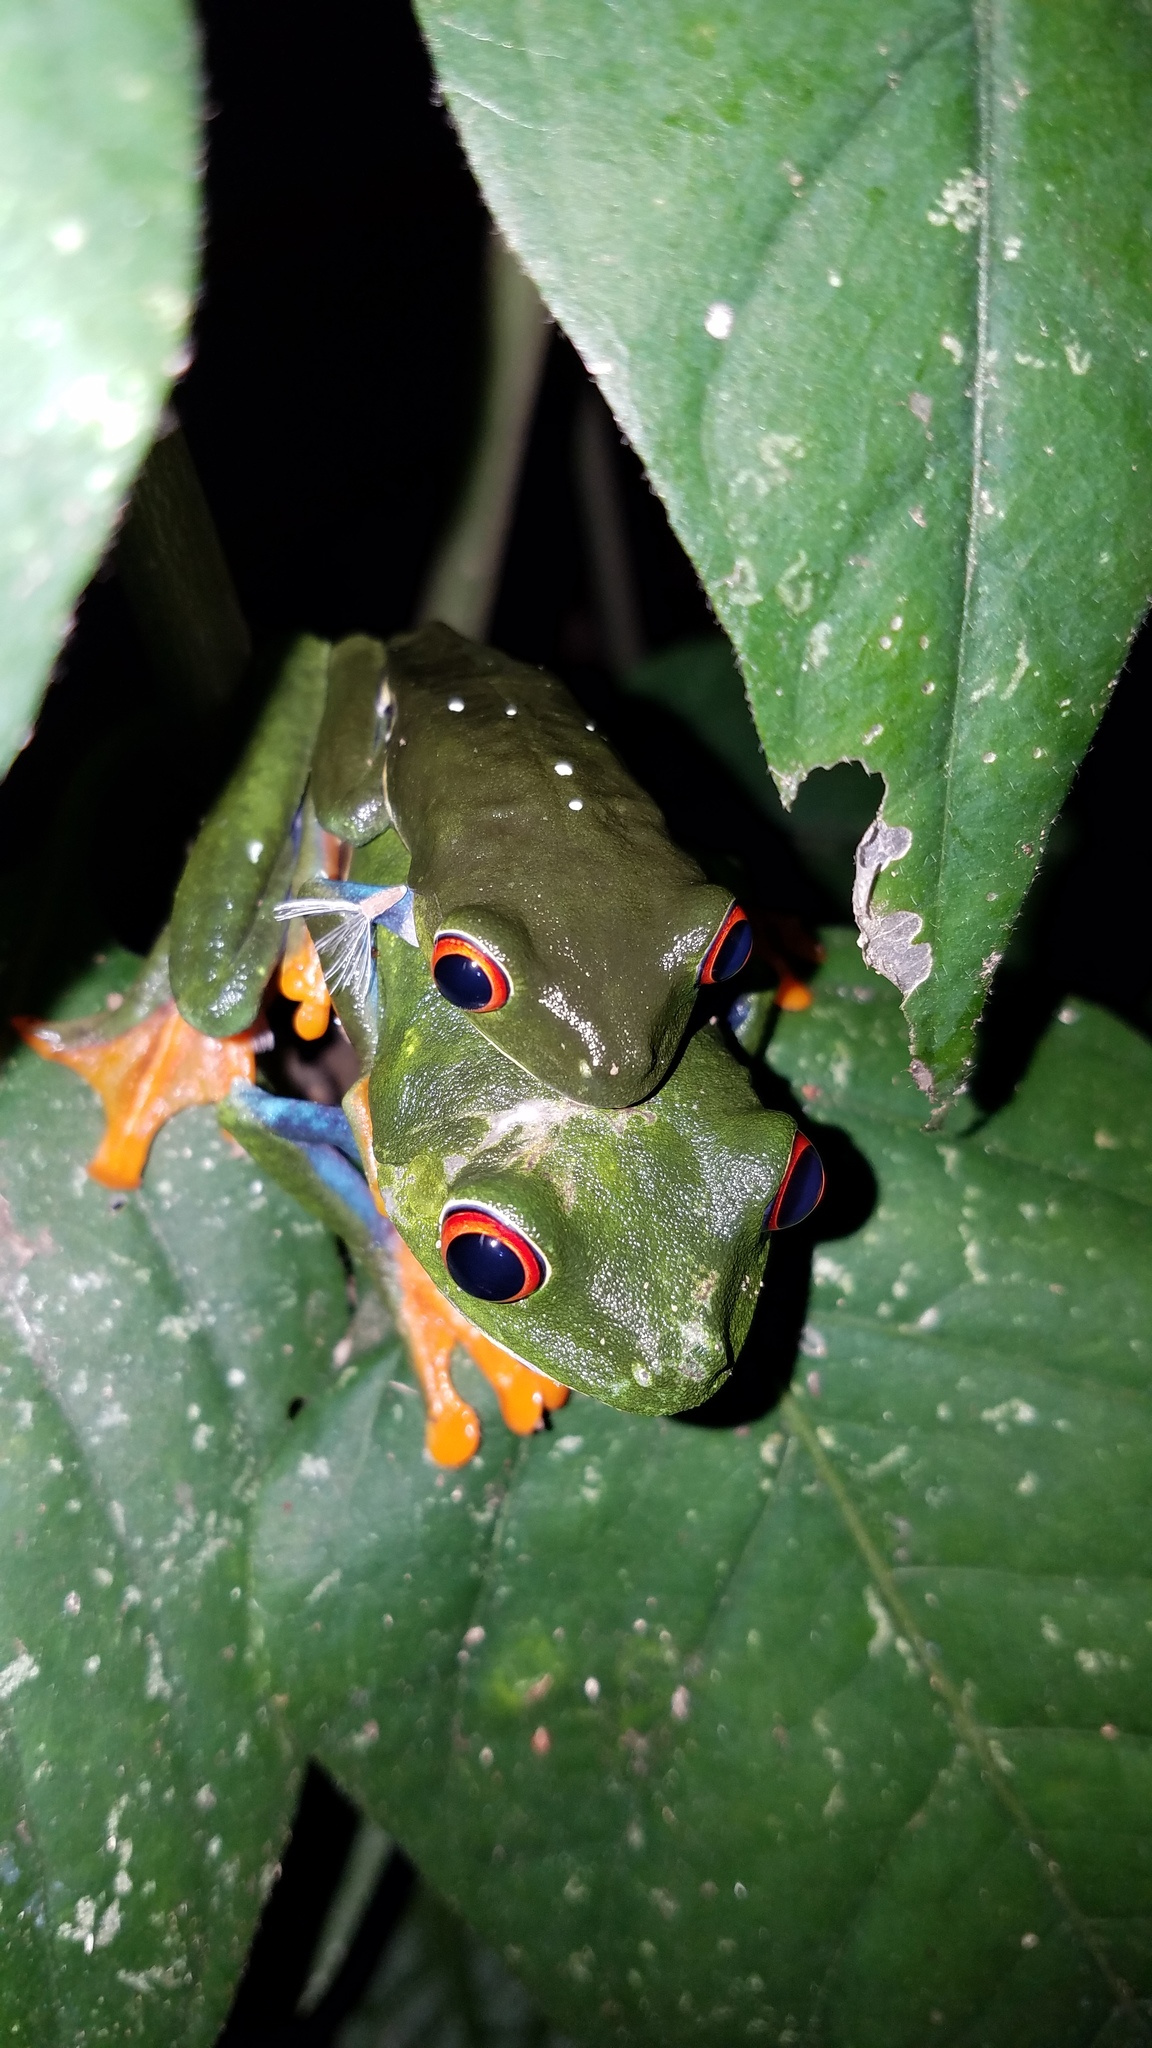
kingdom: Animalia
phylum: Chordata
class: Amphibia
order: Anura
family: Phyllomedusidae
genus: Agalychnis
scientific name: Agalychnis callidryas
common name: Red-eyed treefrog
